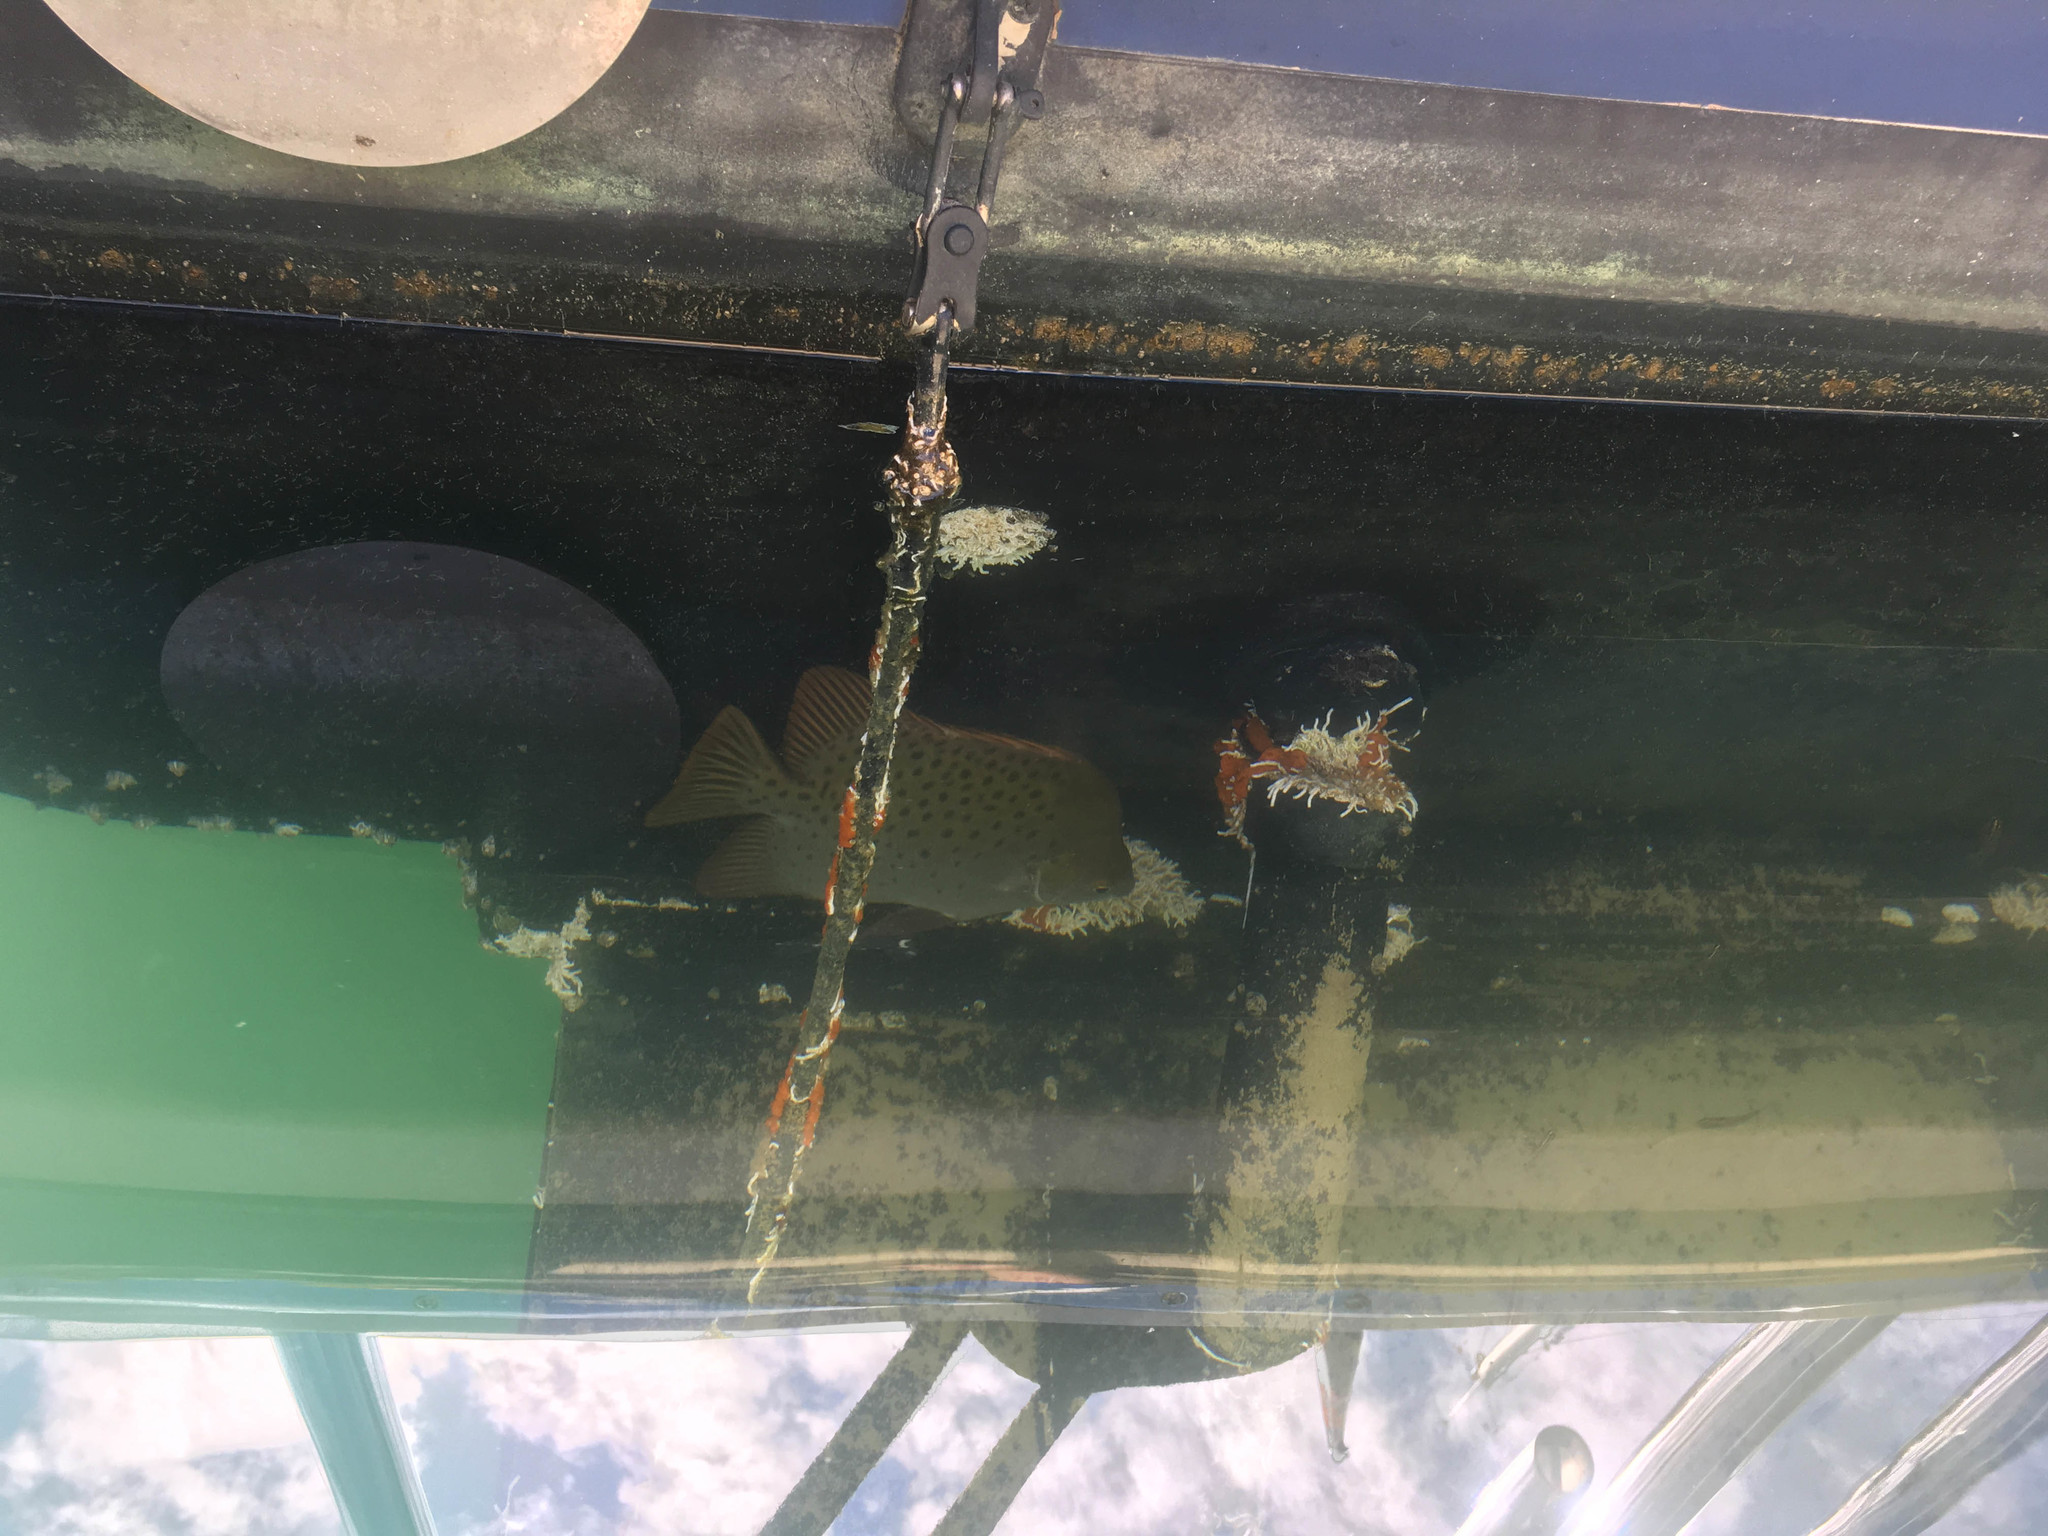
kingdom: Animalia
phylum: Chordata
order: Perciformes
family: Scatophagidae
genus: Scatophagus
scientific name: Scatophagus argus
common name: Spotted scat
